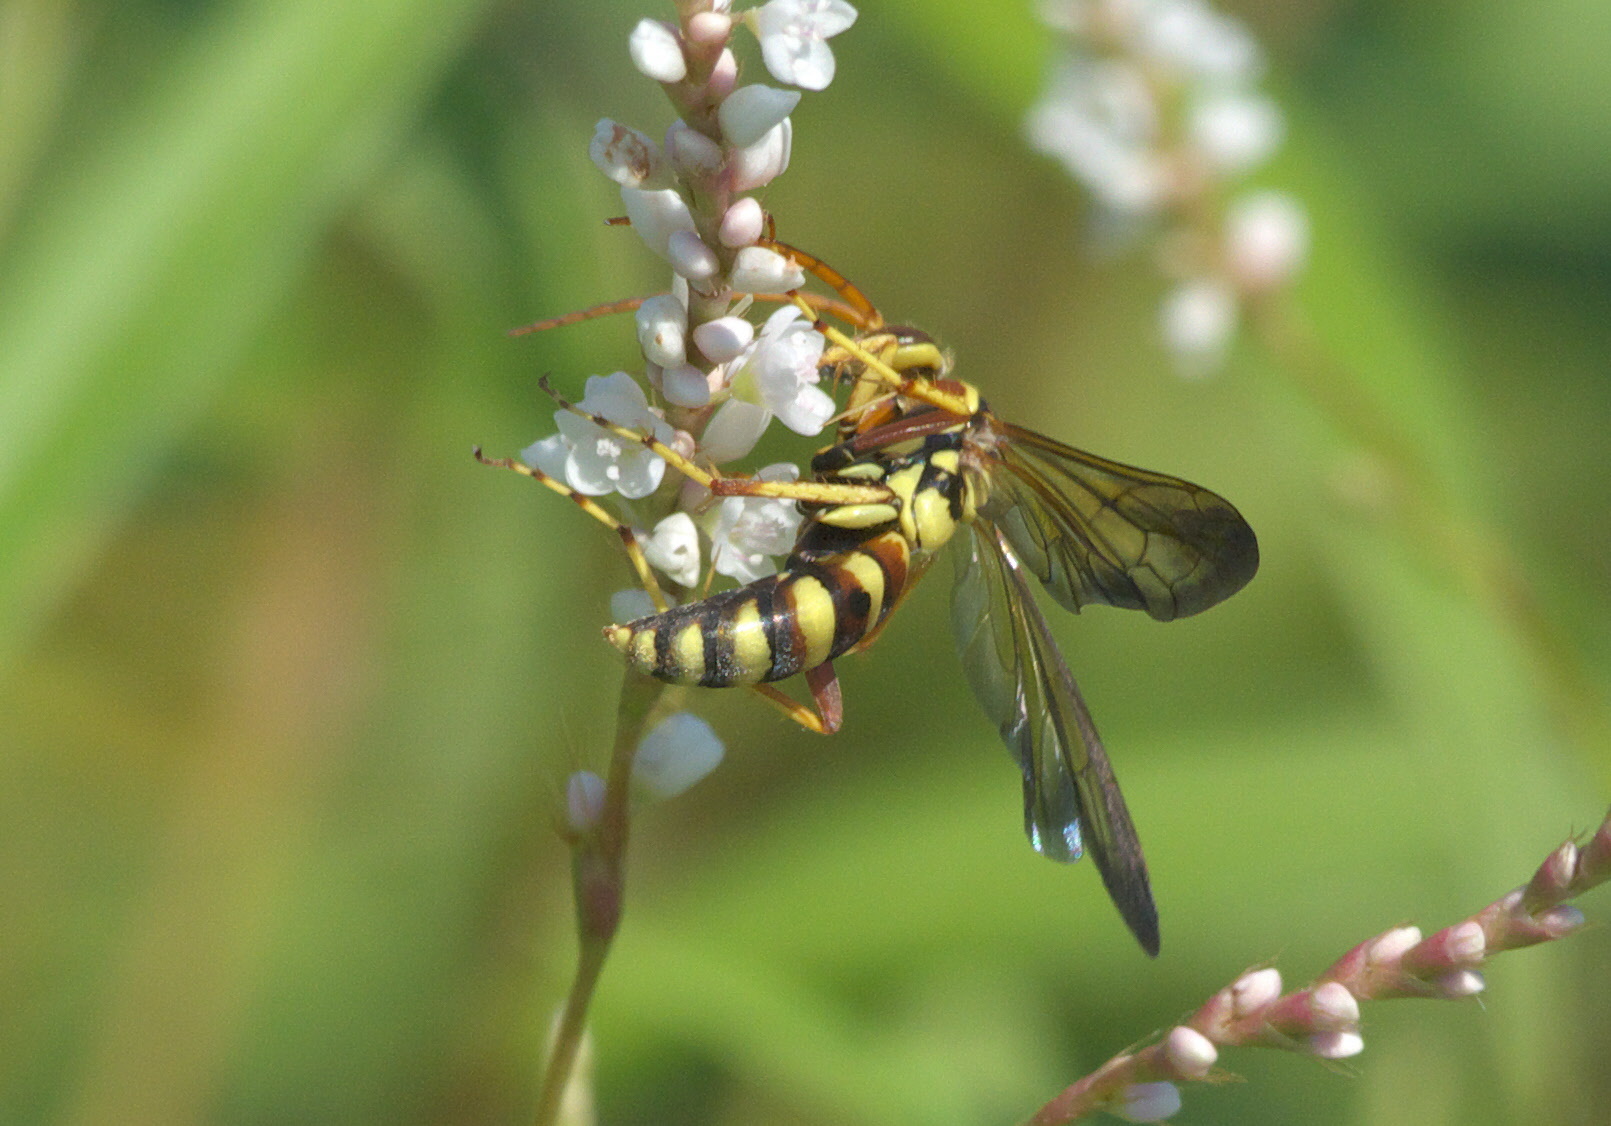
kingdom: Animalia
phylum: Arthropoda
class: Insecta
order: Hymenoptera
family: Pompilidae
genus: Poecilopompilus
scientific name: Poecilopompilus interruptus
